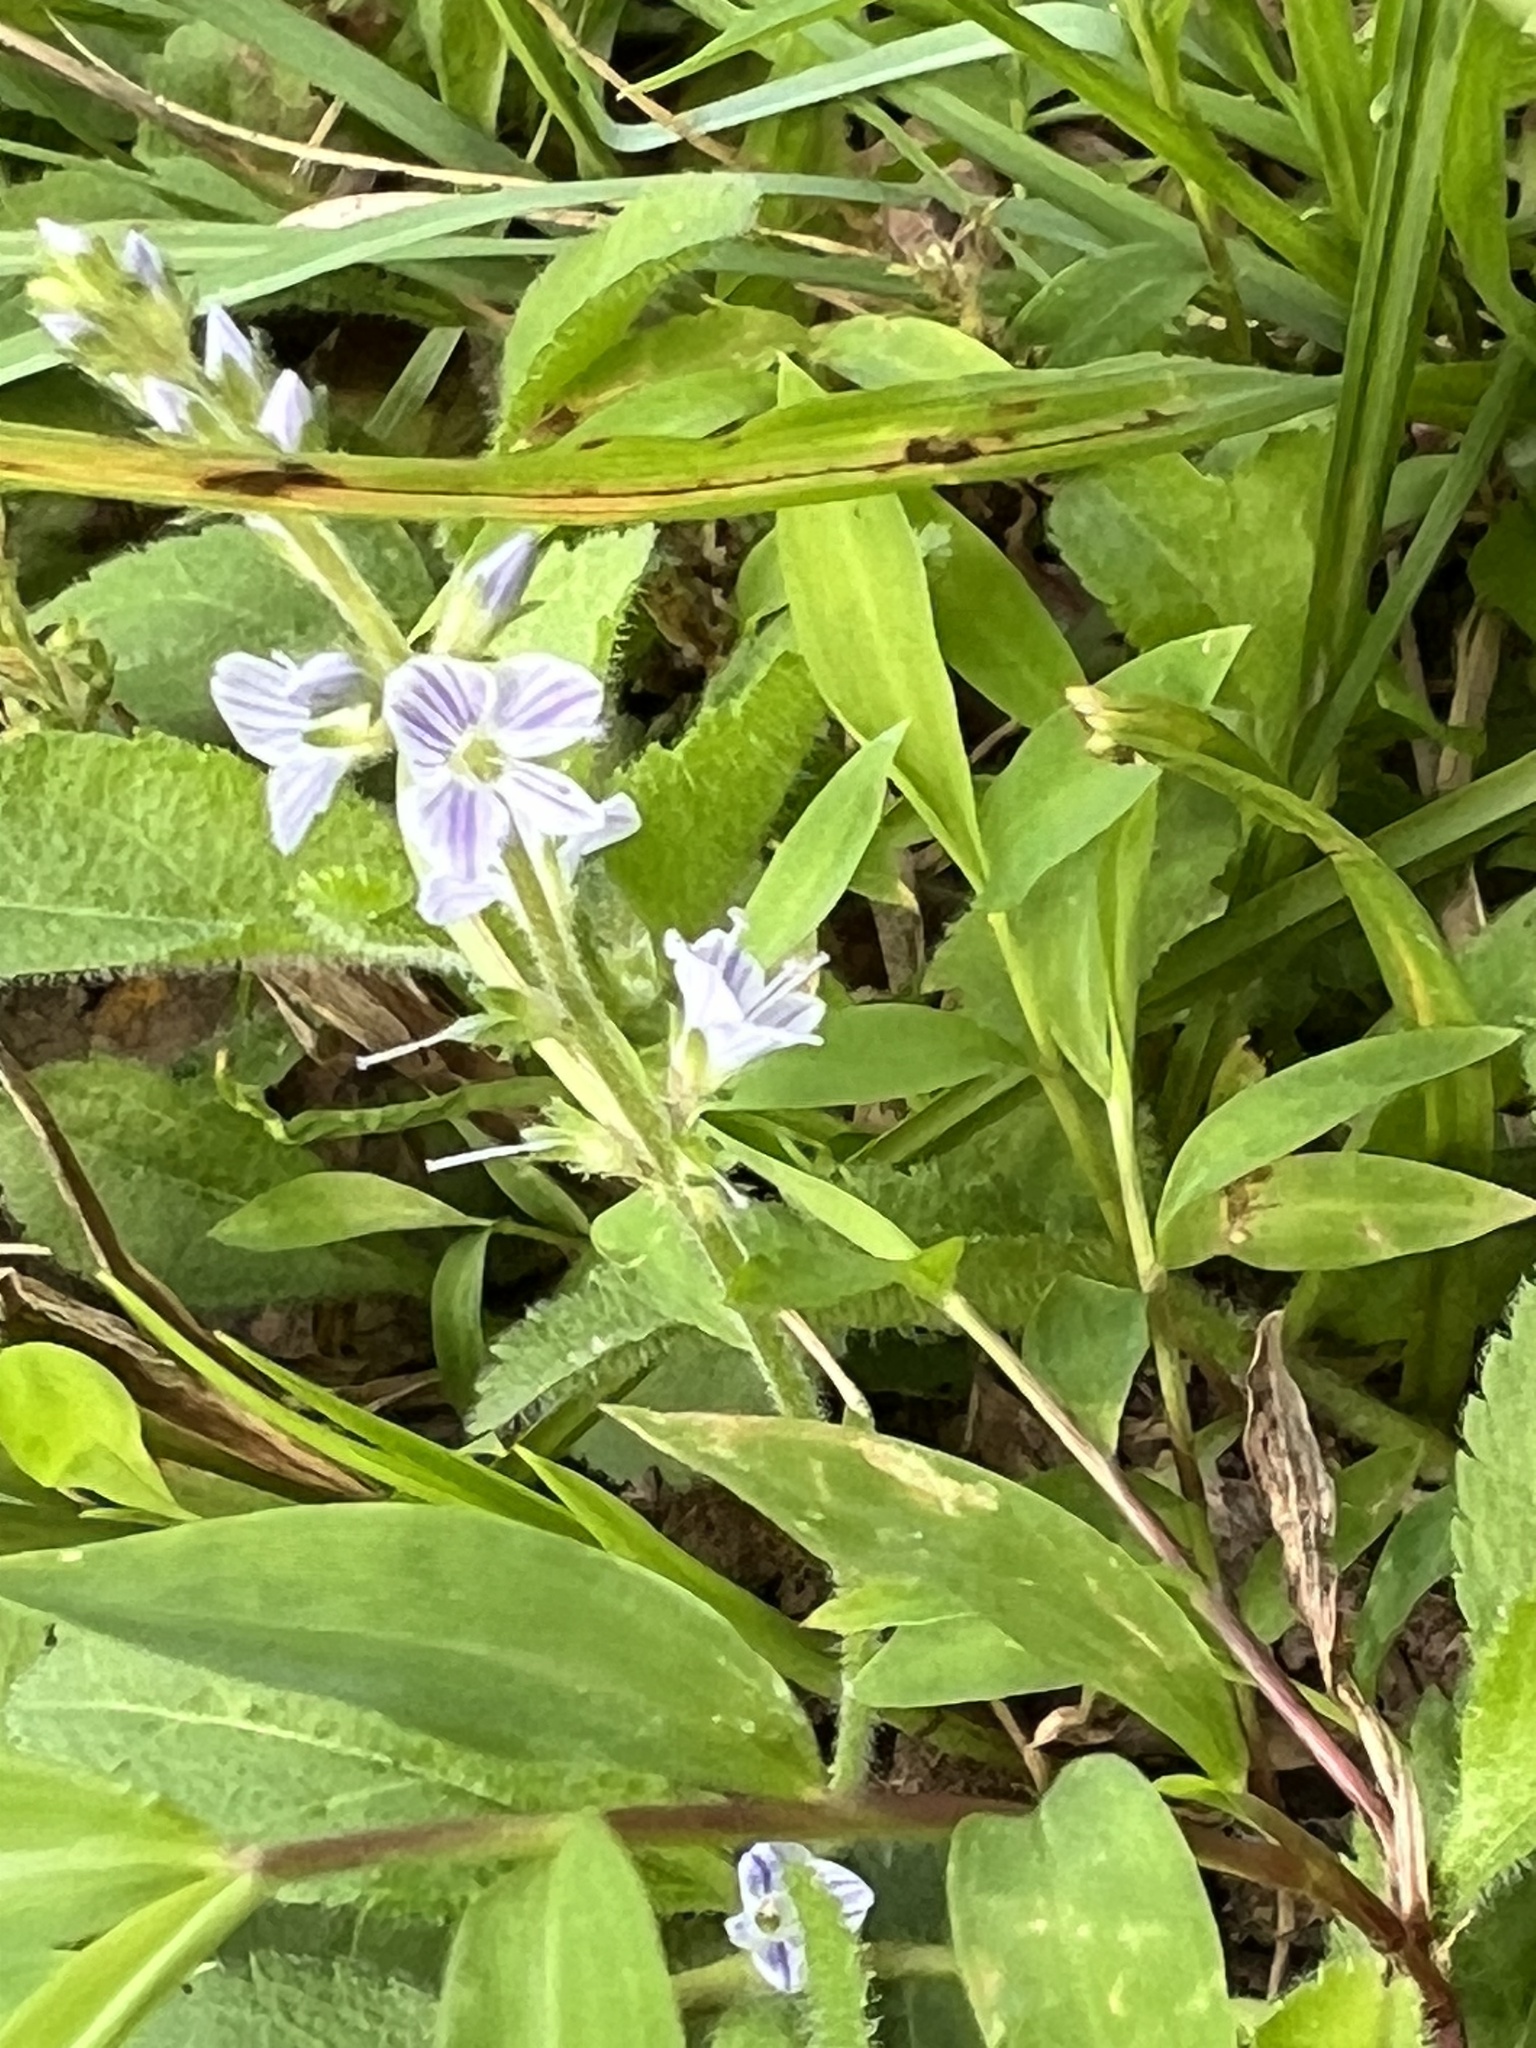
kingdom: Plantae
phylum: Tracheophyta
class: Magnoliopsida
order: Lamiales
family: Plantaginaceae
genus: Veronica
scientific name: Veronica officinalis
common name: Common speedwell
